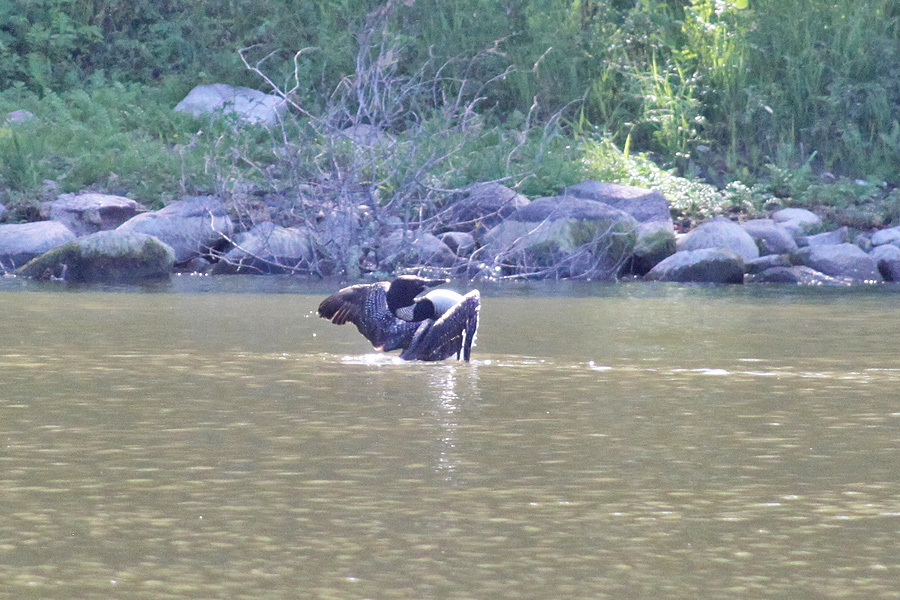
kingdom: Animalia
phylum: Chordata
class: Aves
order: Gaviiformes
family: Gaviidae
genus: Gavia
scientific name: Gavia immer
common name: Common loon
